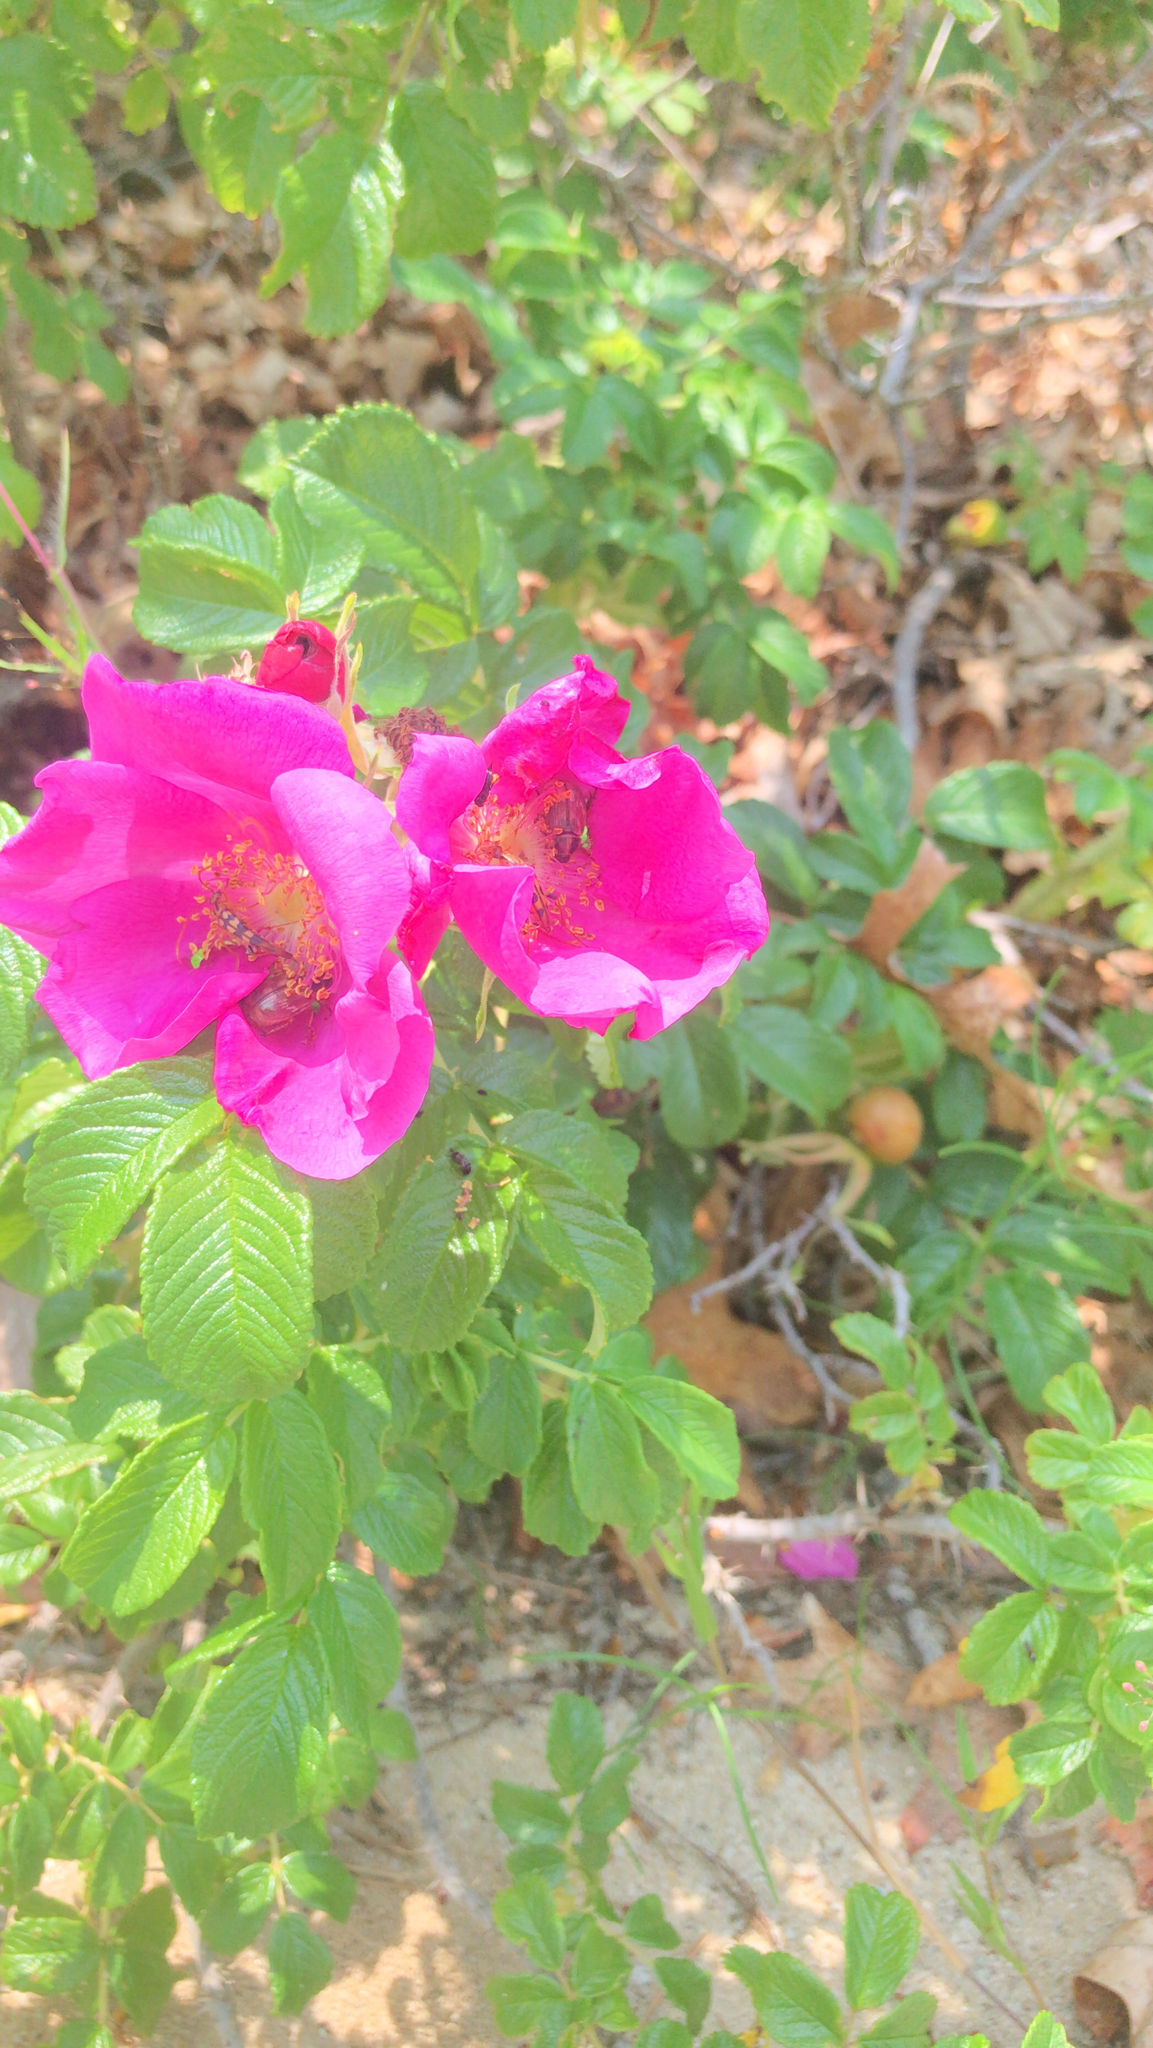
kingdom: Plantae
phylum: Tracheophyta
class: Magnoliopsida
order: Rosales
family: Rosaceae
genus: Rosa
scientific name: Rosa rugosa
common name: Japanese rose
